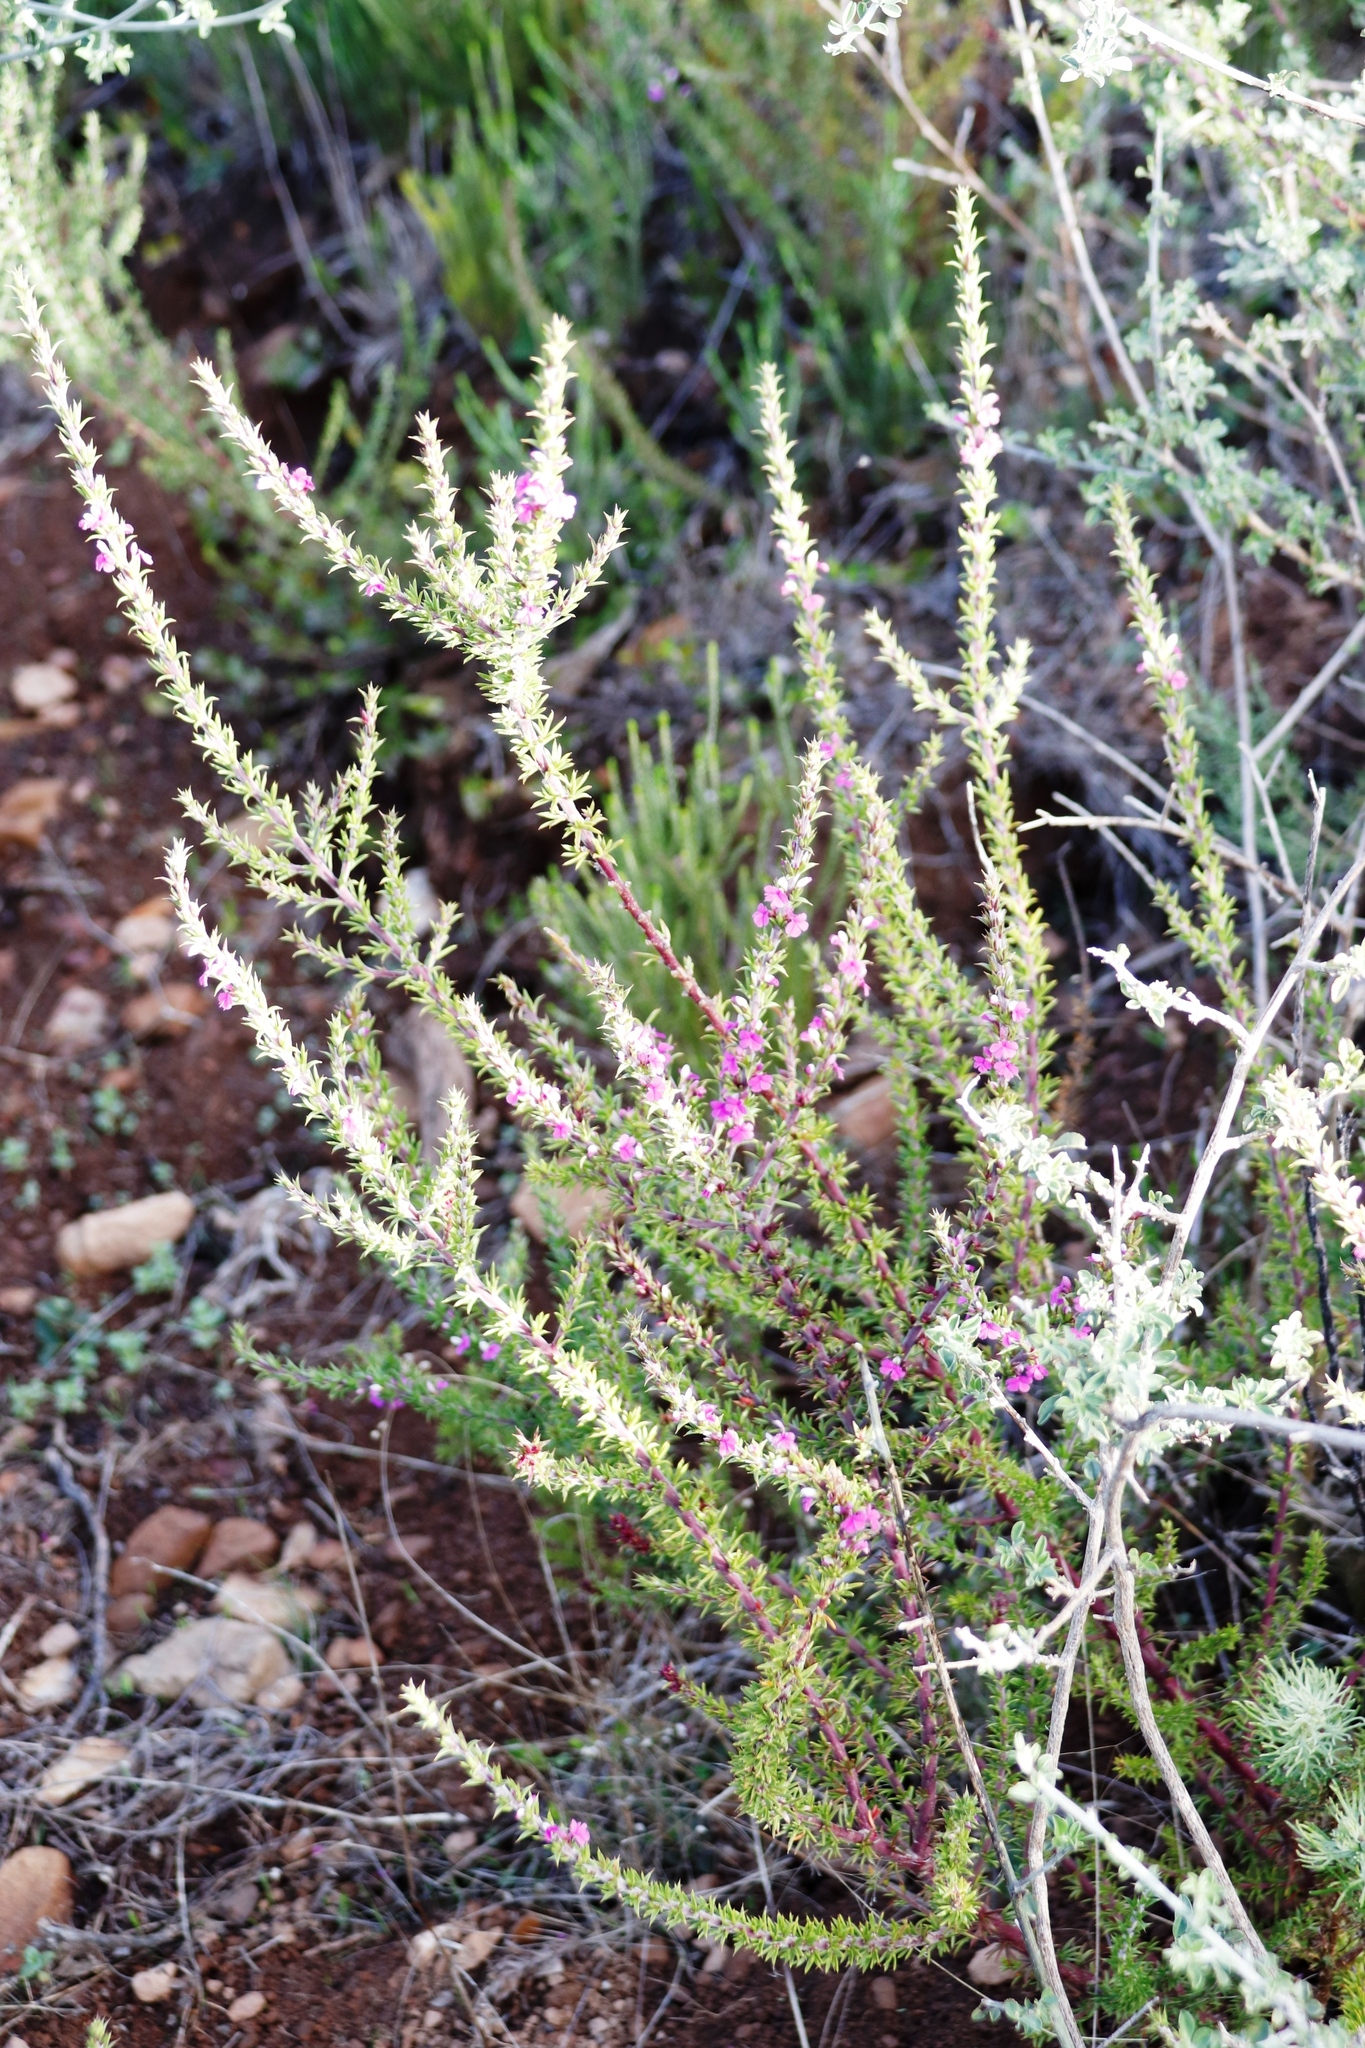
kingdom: Plantae
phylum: Tracheophyta
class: Magnoliopsida
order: Fabales
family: Polygalaceae
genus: Muraltia
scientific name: Muraltia heisteria
